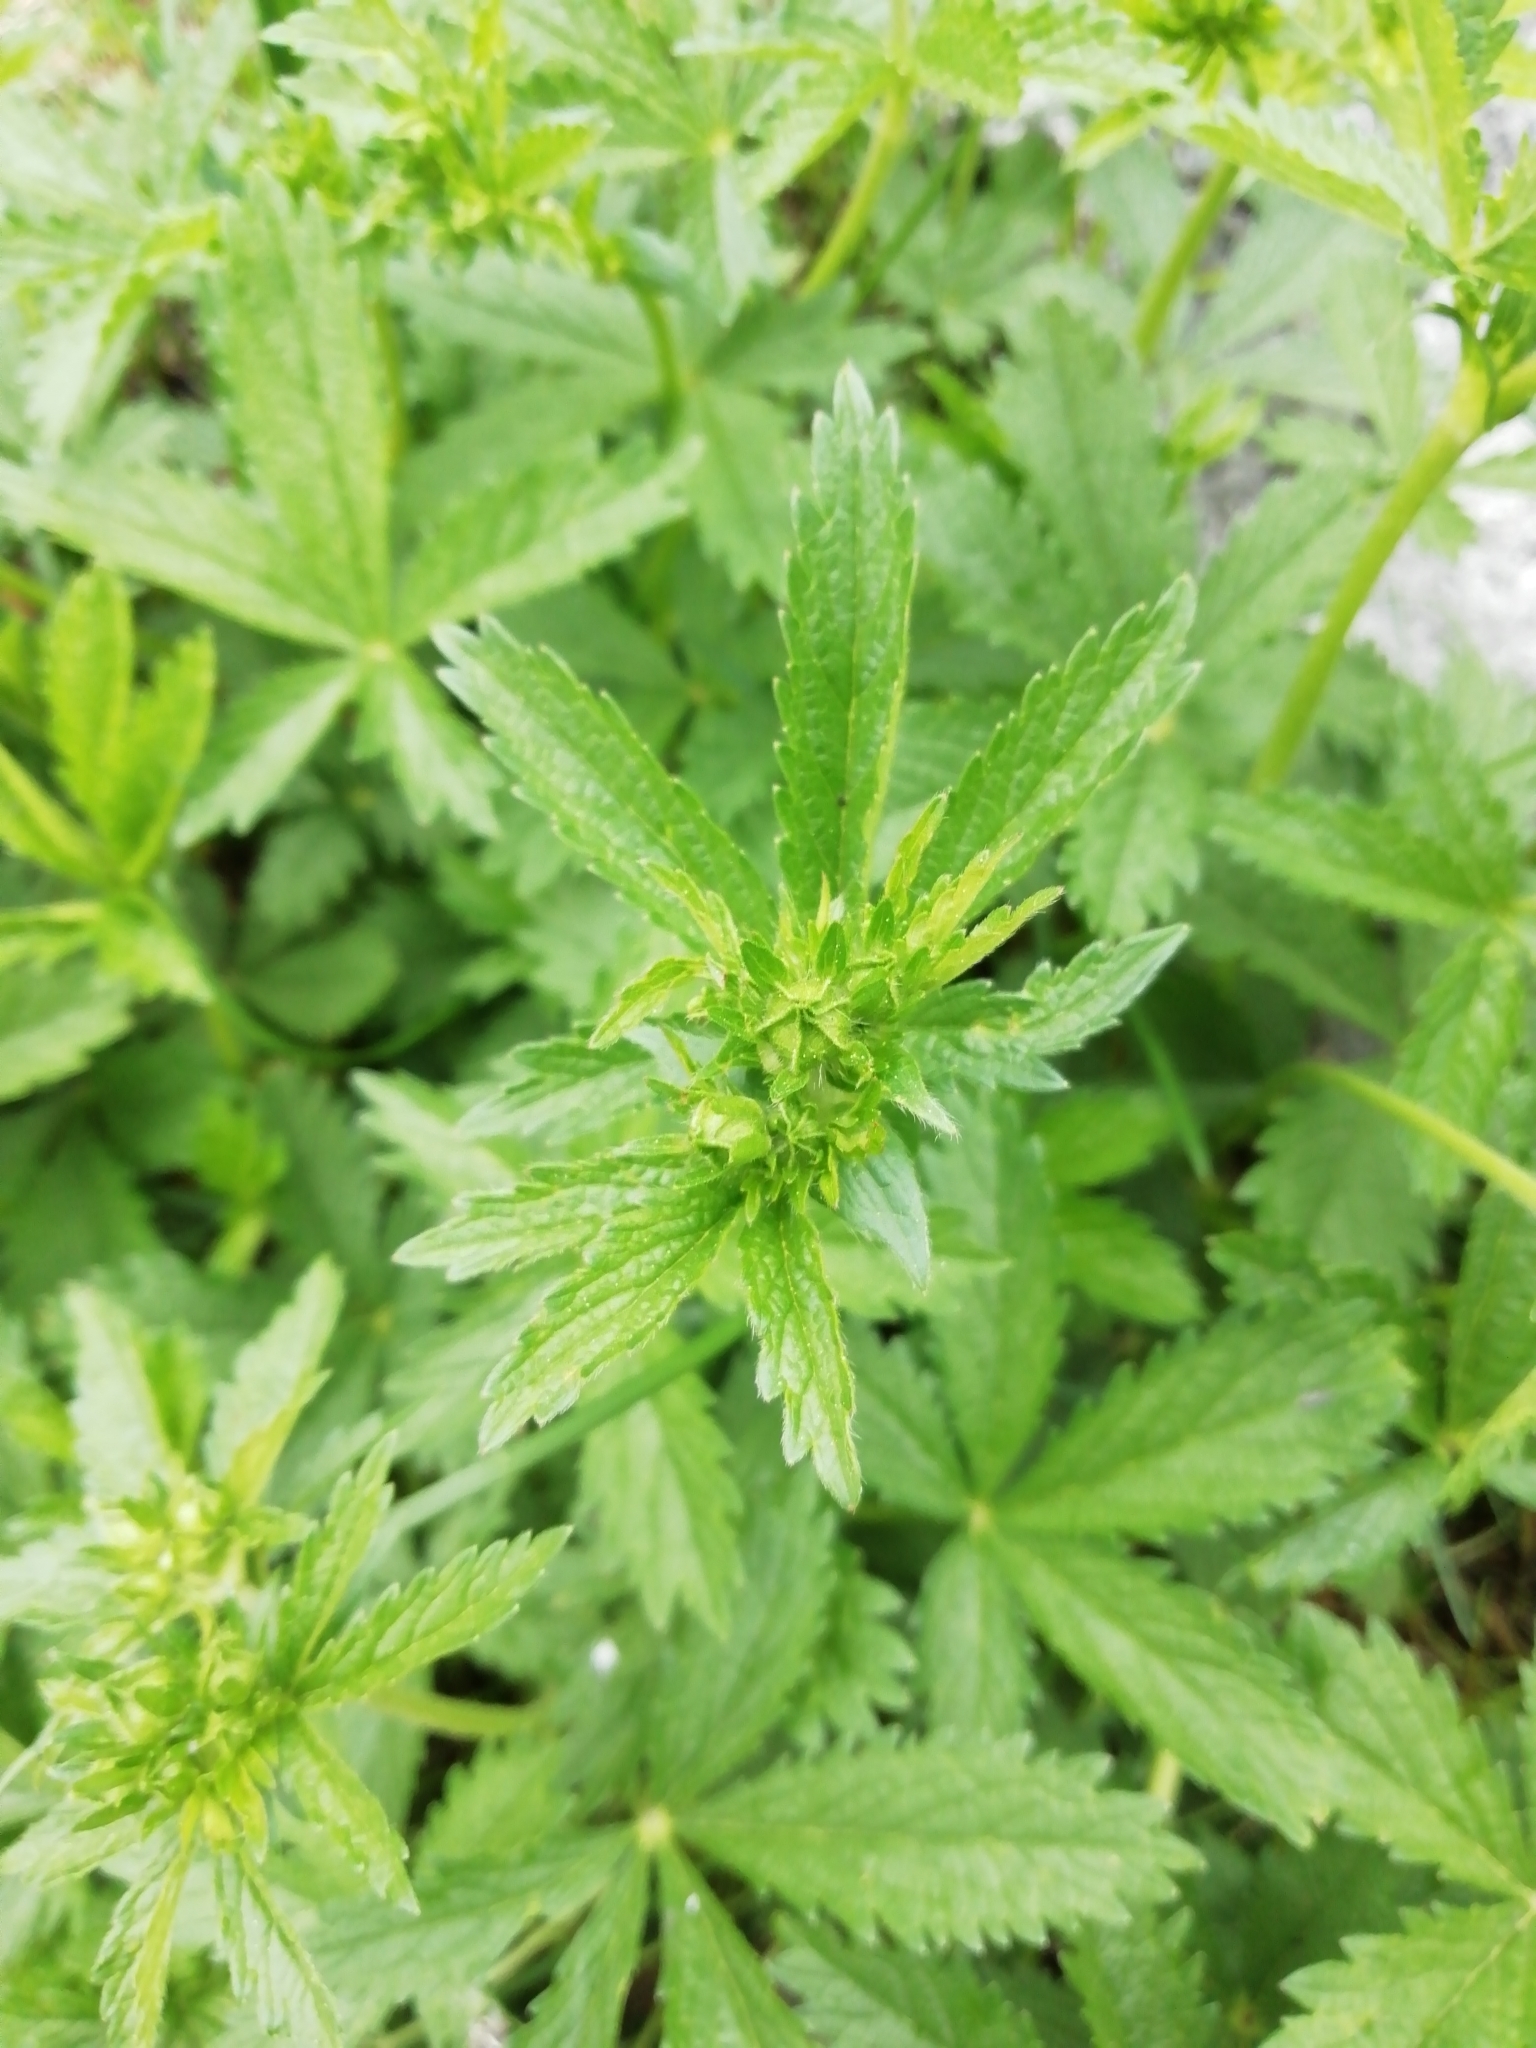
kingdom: Plantae
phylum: Tracheophyta
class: Magnoliopsida
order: Rosales
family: Rosaceae
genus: Potentilla
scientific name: Potentilla chrysantha
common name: Thuringian cinquefoil
